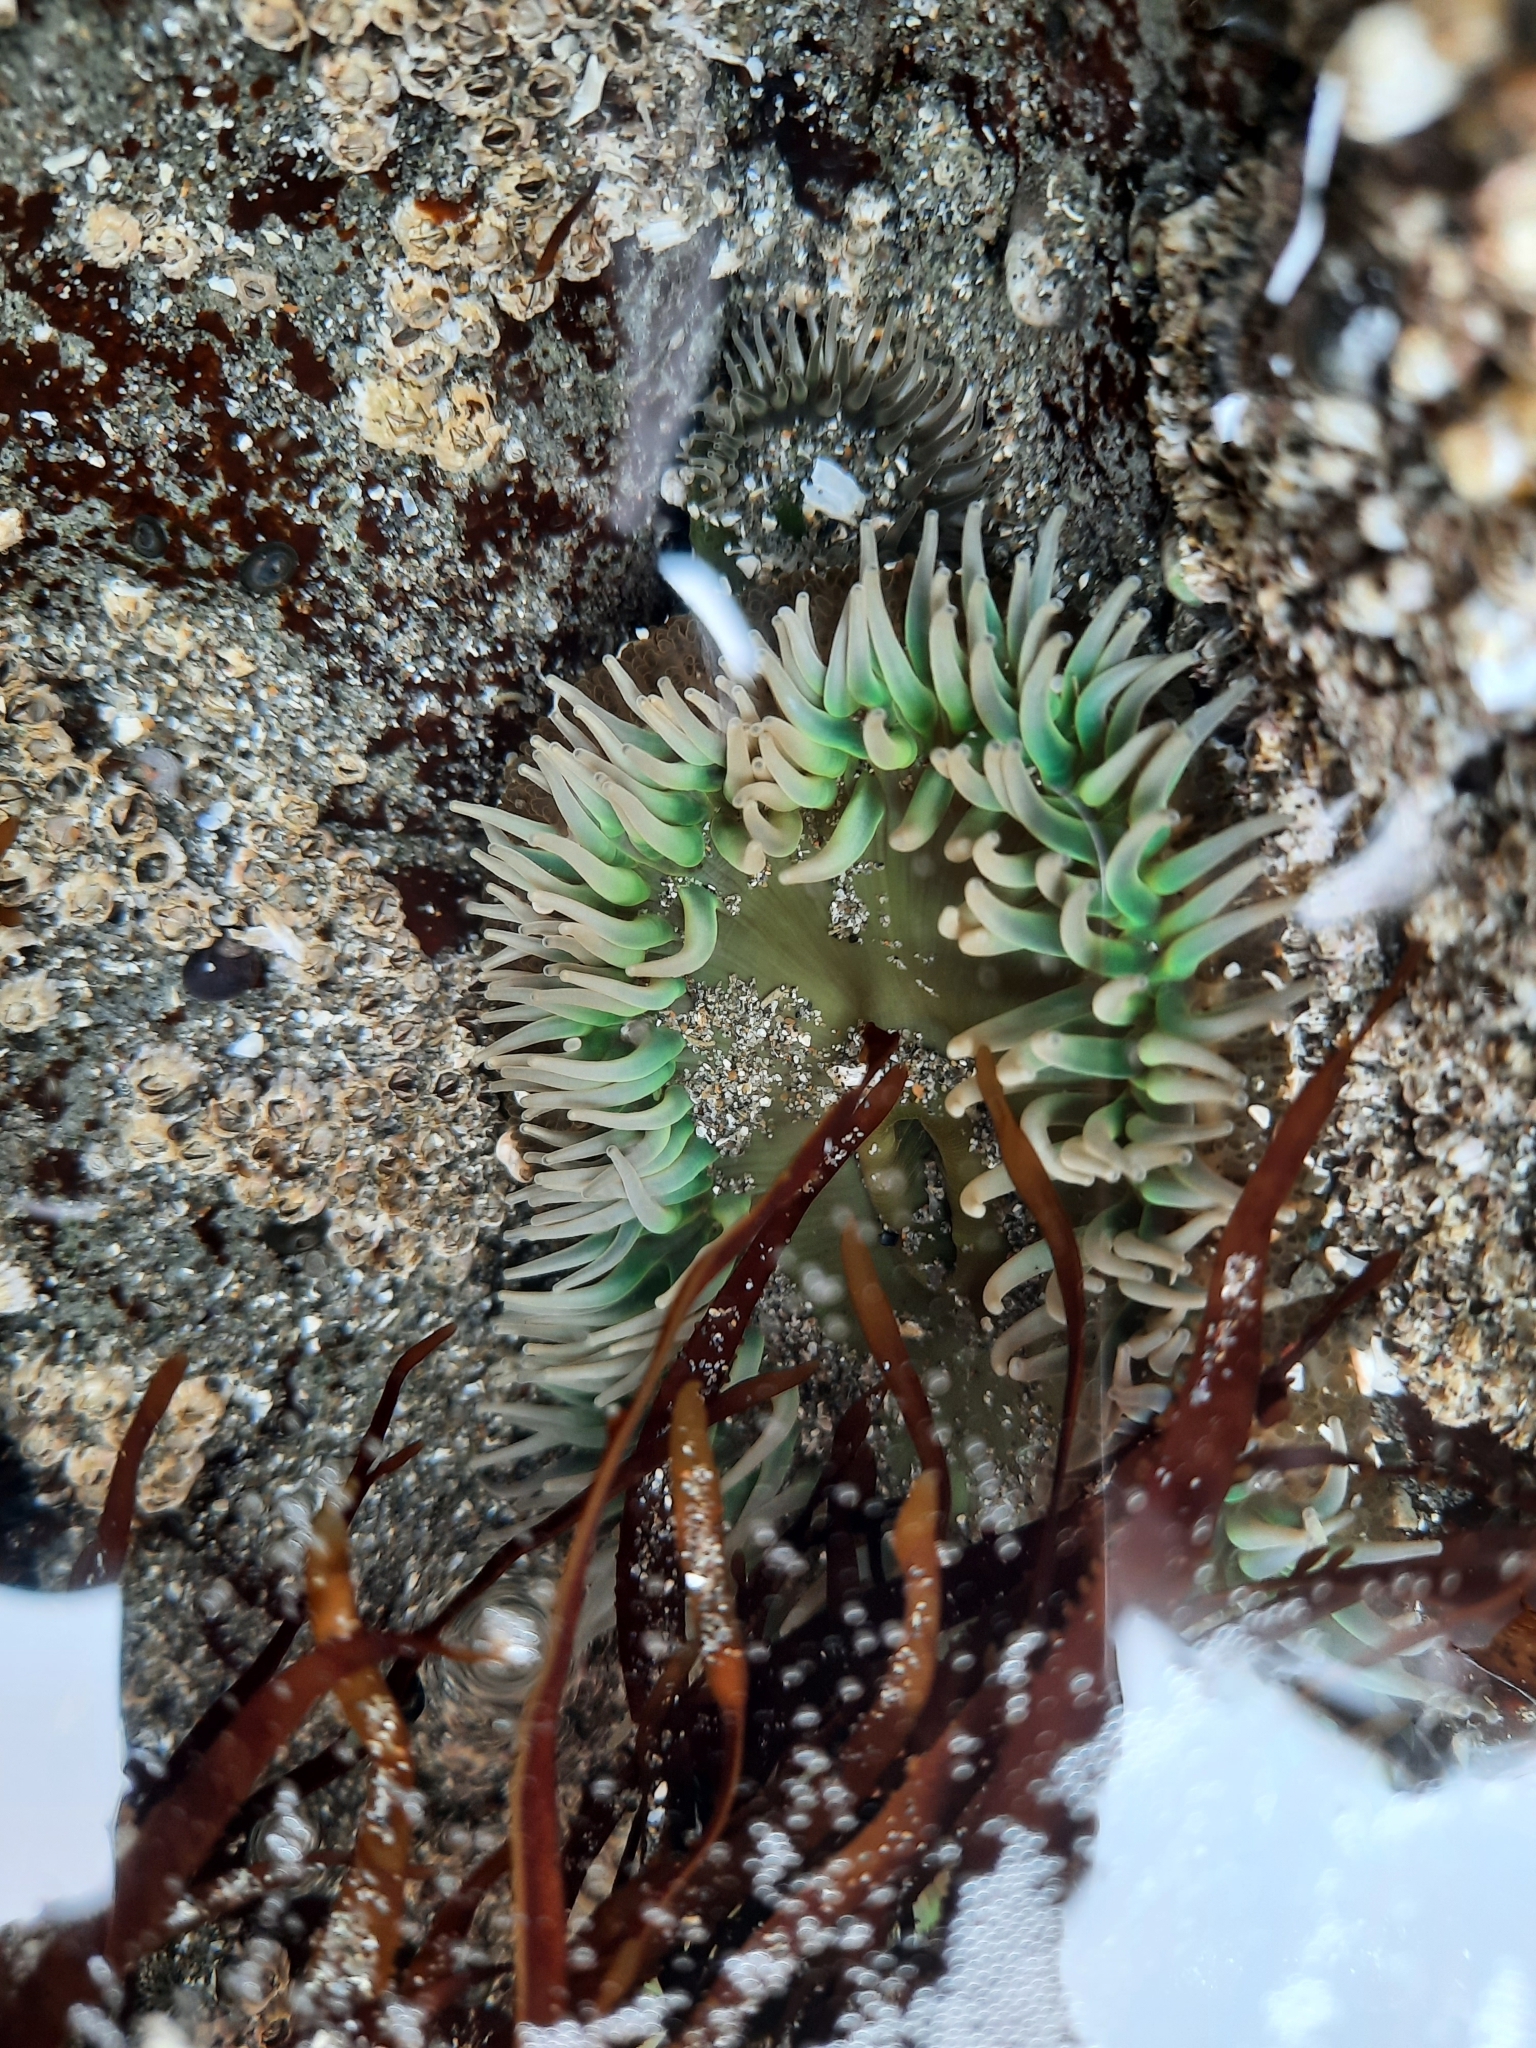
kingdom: Animalia
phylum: Cnidaria
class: Anthozoa
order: Actiniaria
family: Actiniidae
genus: Anthopleura
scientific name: Anthopleura xanthogrammica
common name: Giant green anemone
